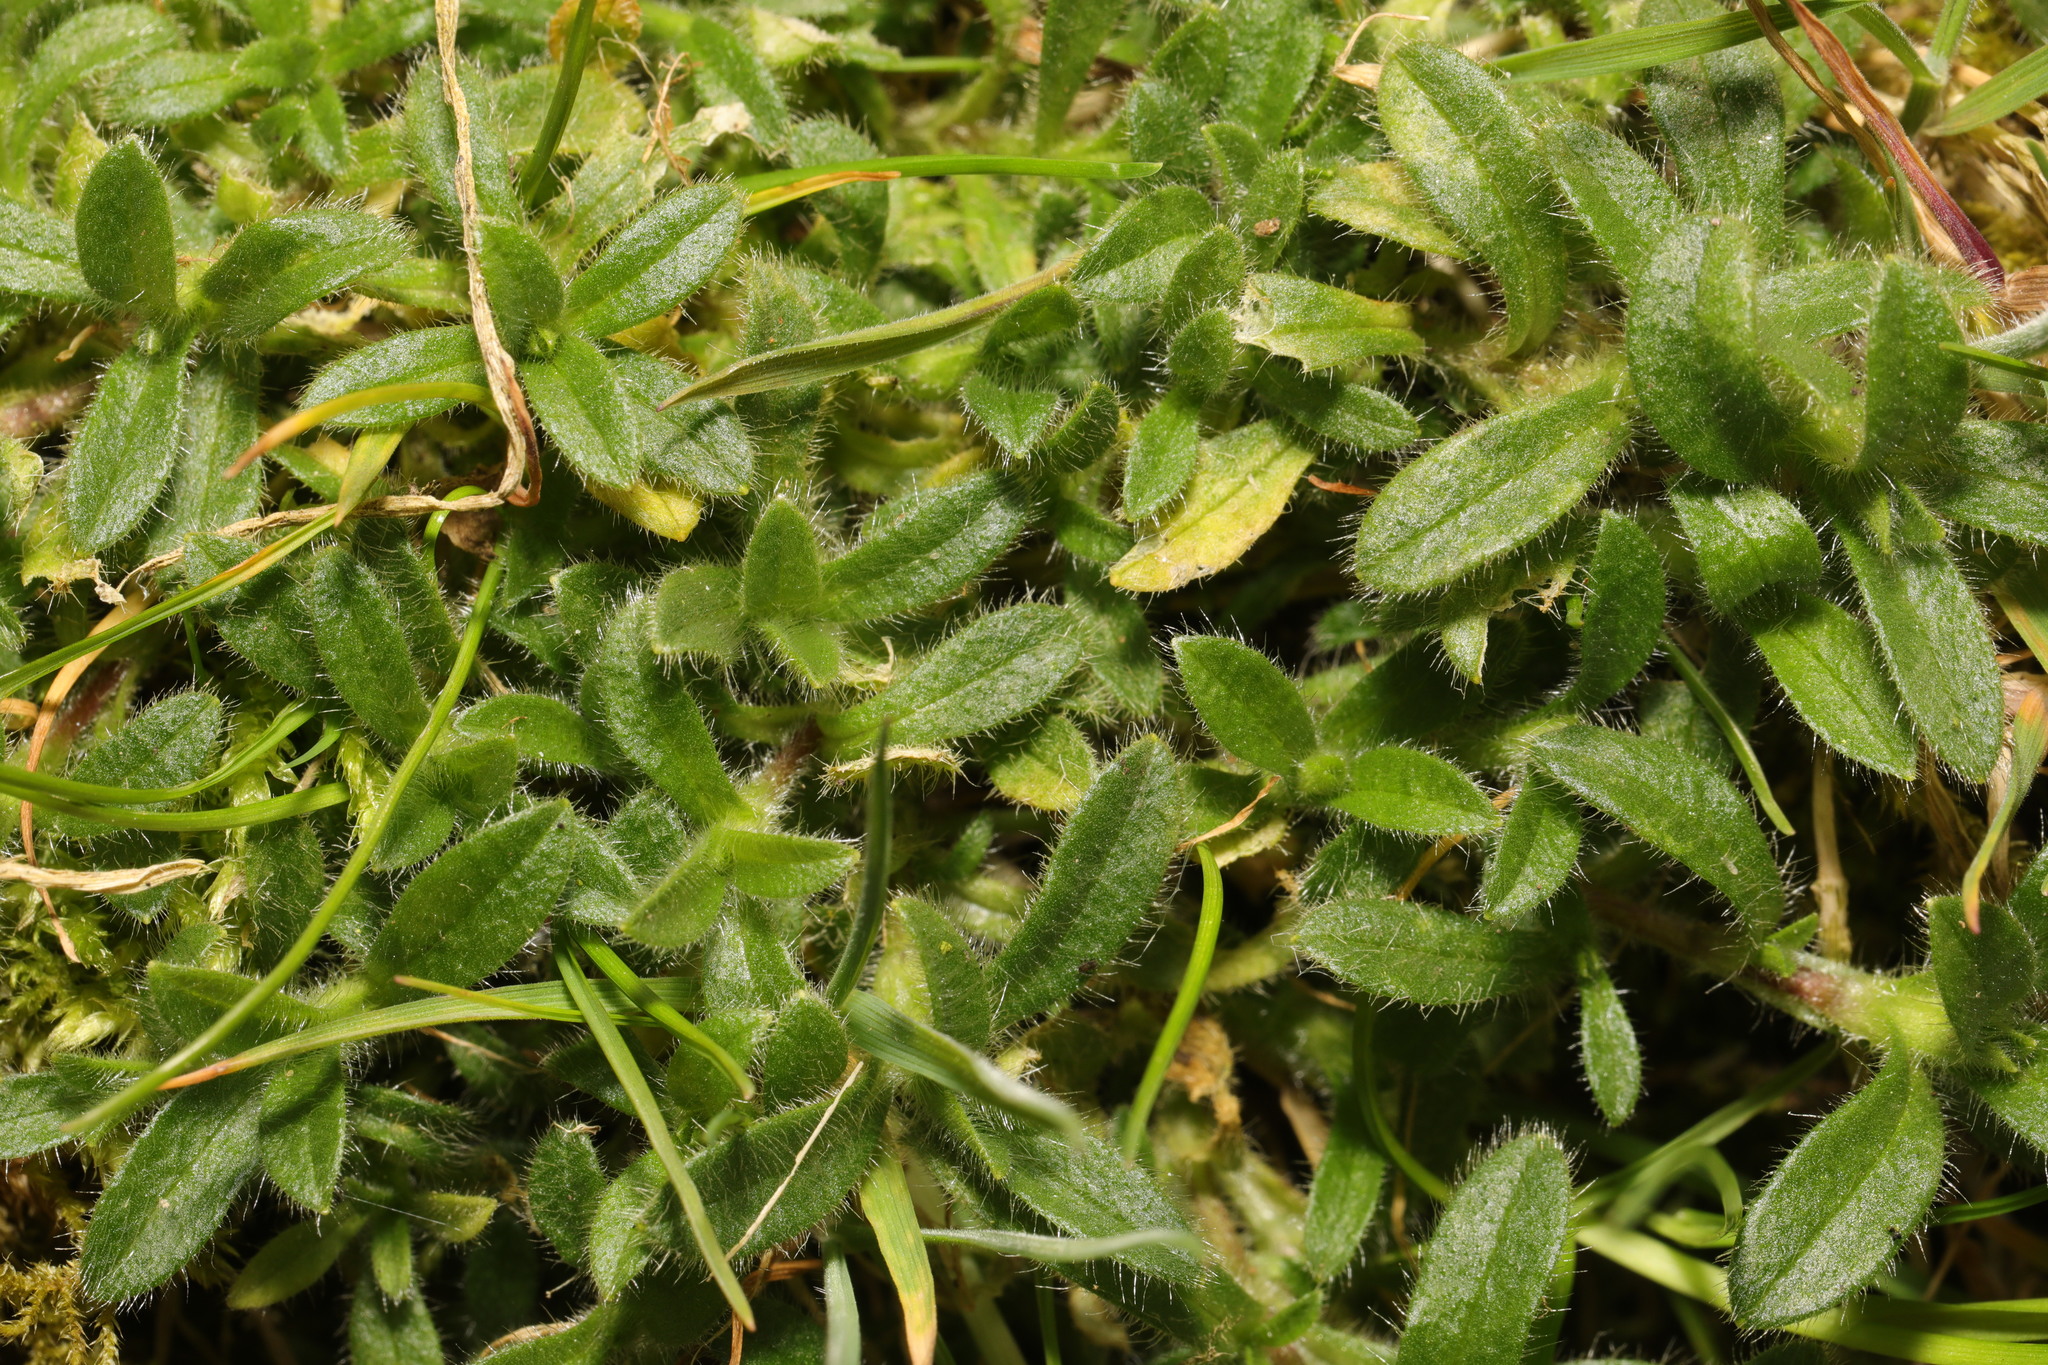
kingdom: Plantae
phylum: Tracheophyta
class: Magnoliopsida
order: Caryophyllales
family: Caryophyllaceae
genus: Cerastium
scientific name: Cerastium fontanum
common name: Common mouse-ear
